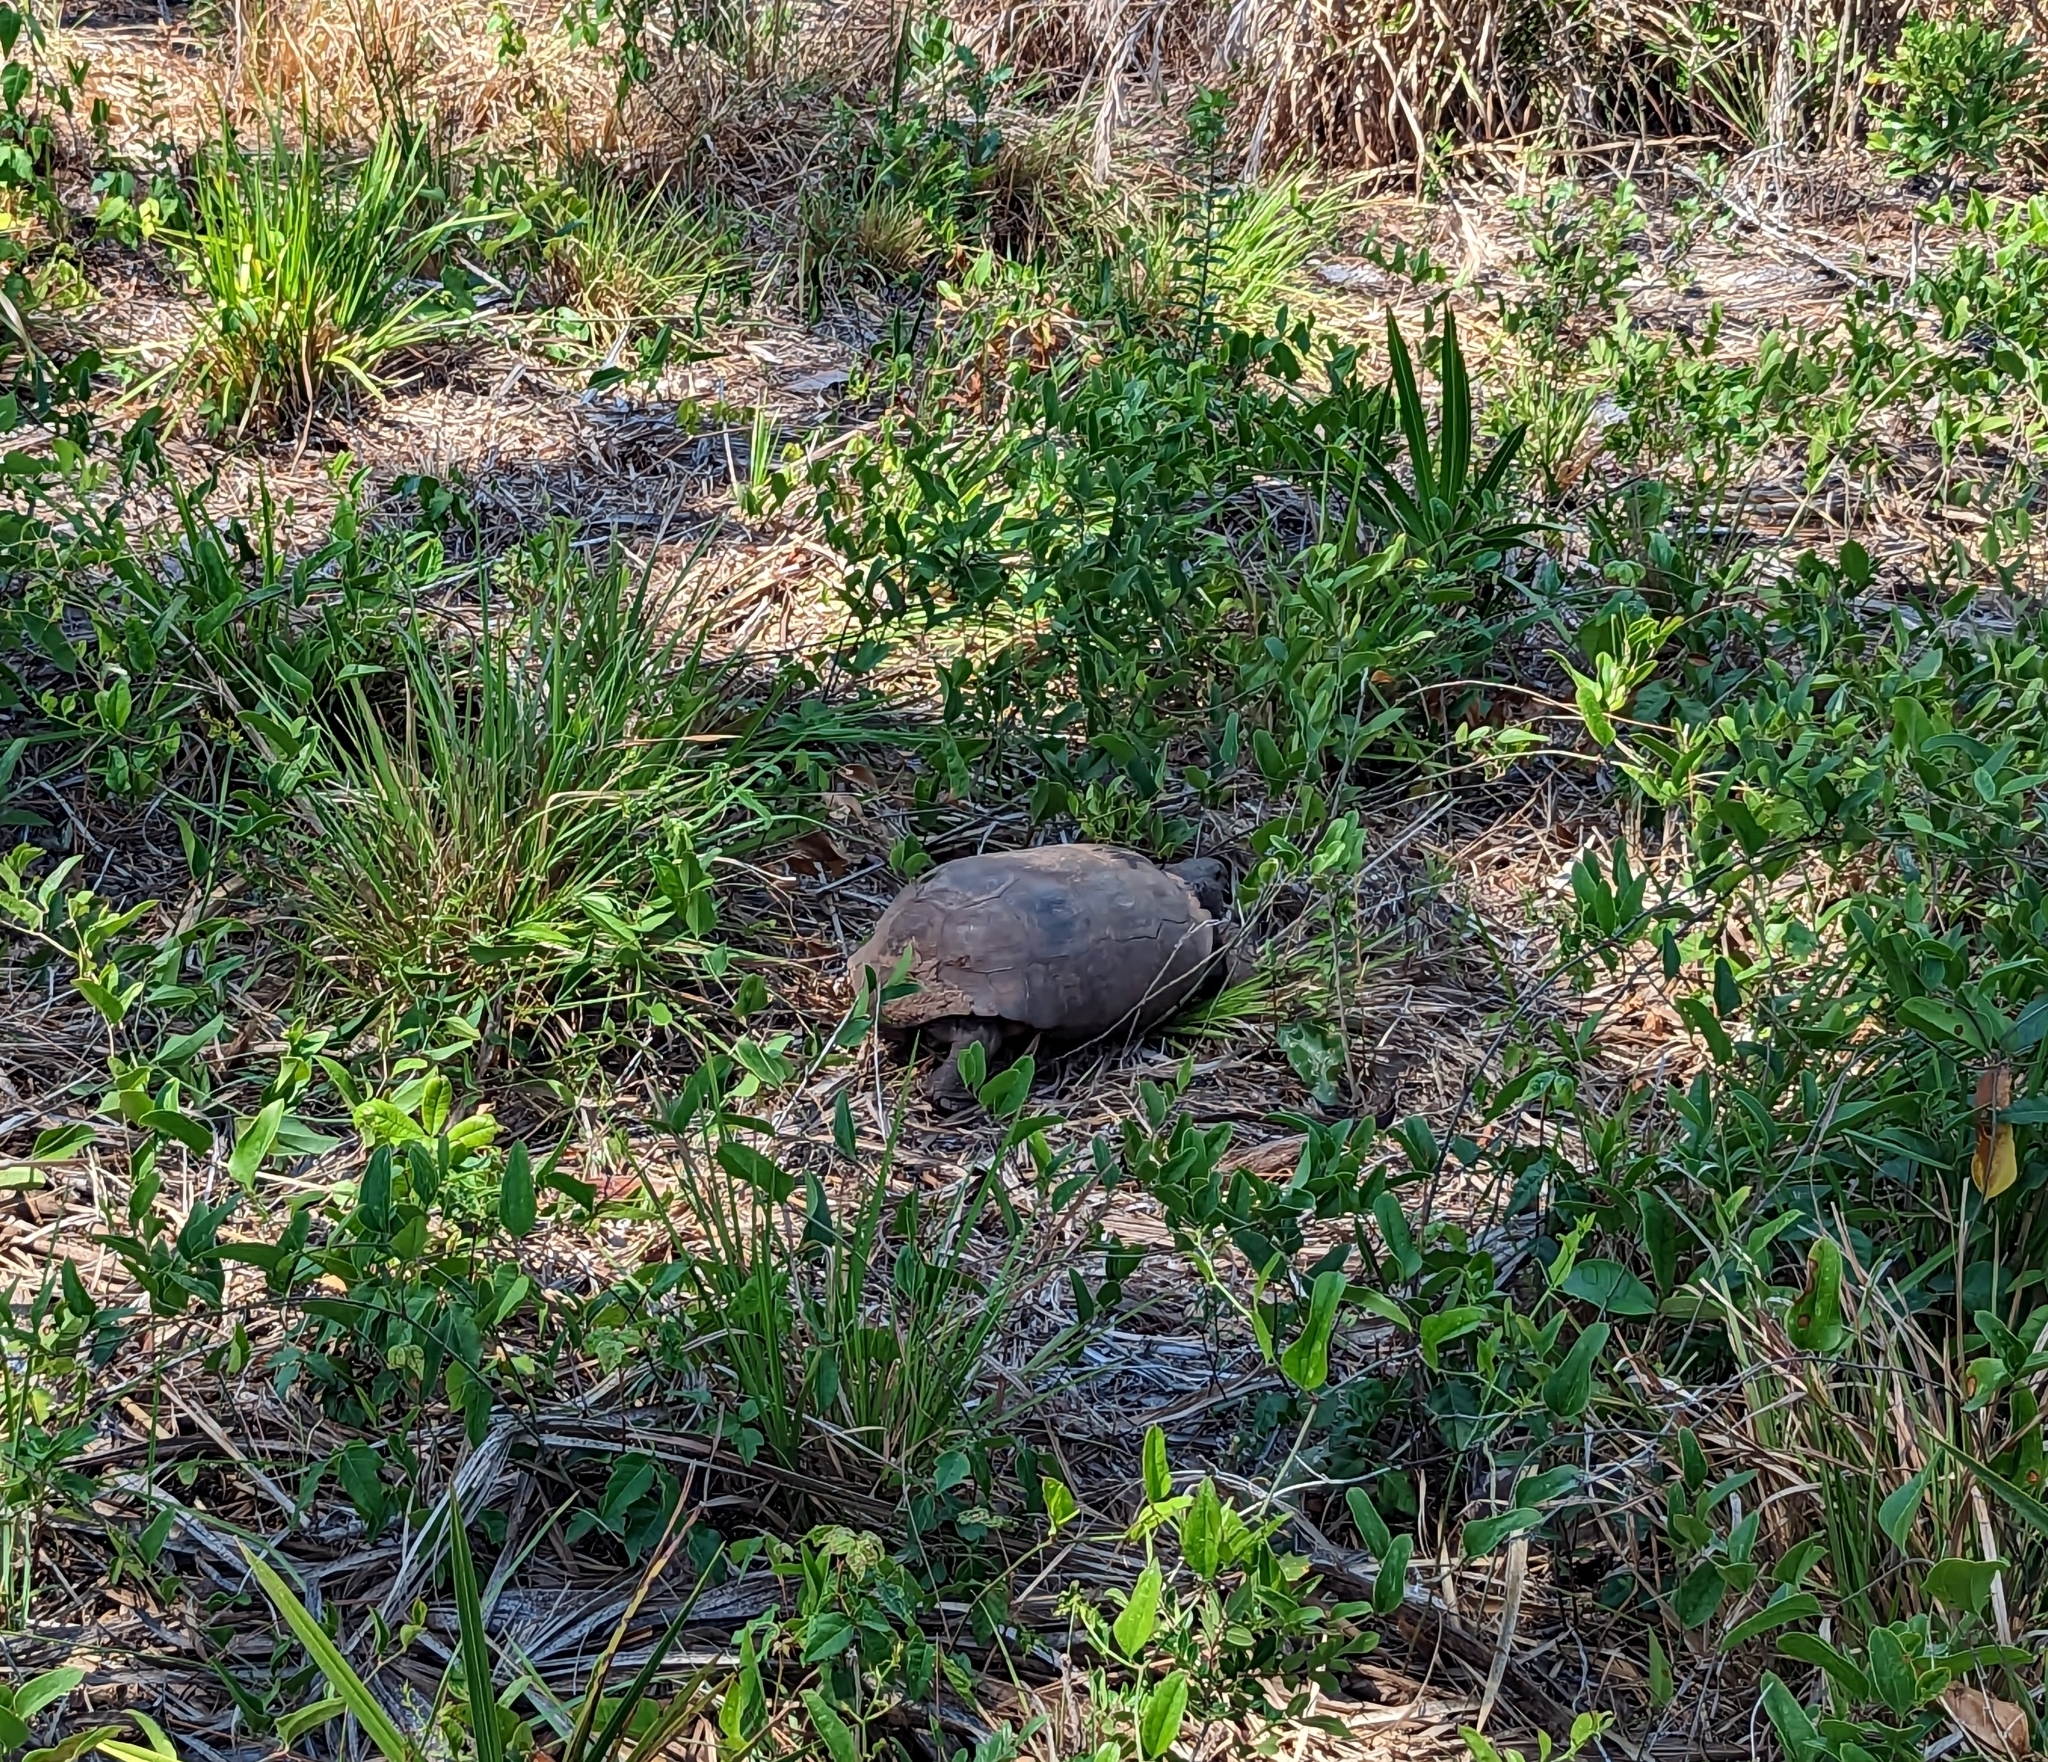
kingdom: Animalia
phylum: Chordata
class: Testudines
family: Testudinidae
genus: Gopherus
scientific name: Gopherus polyphemus
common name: Florida gopher tortoise
